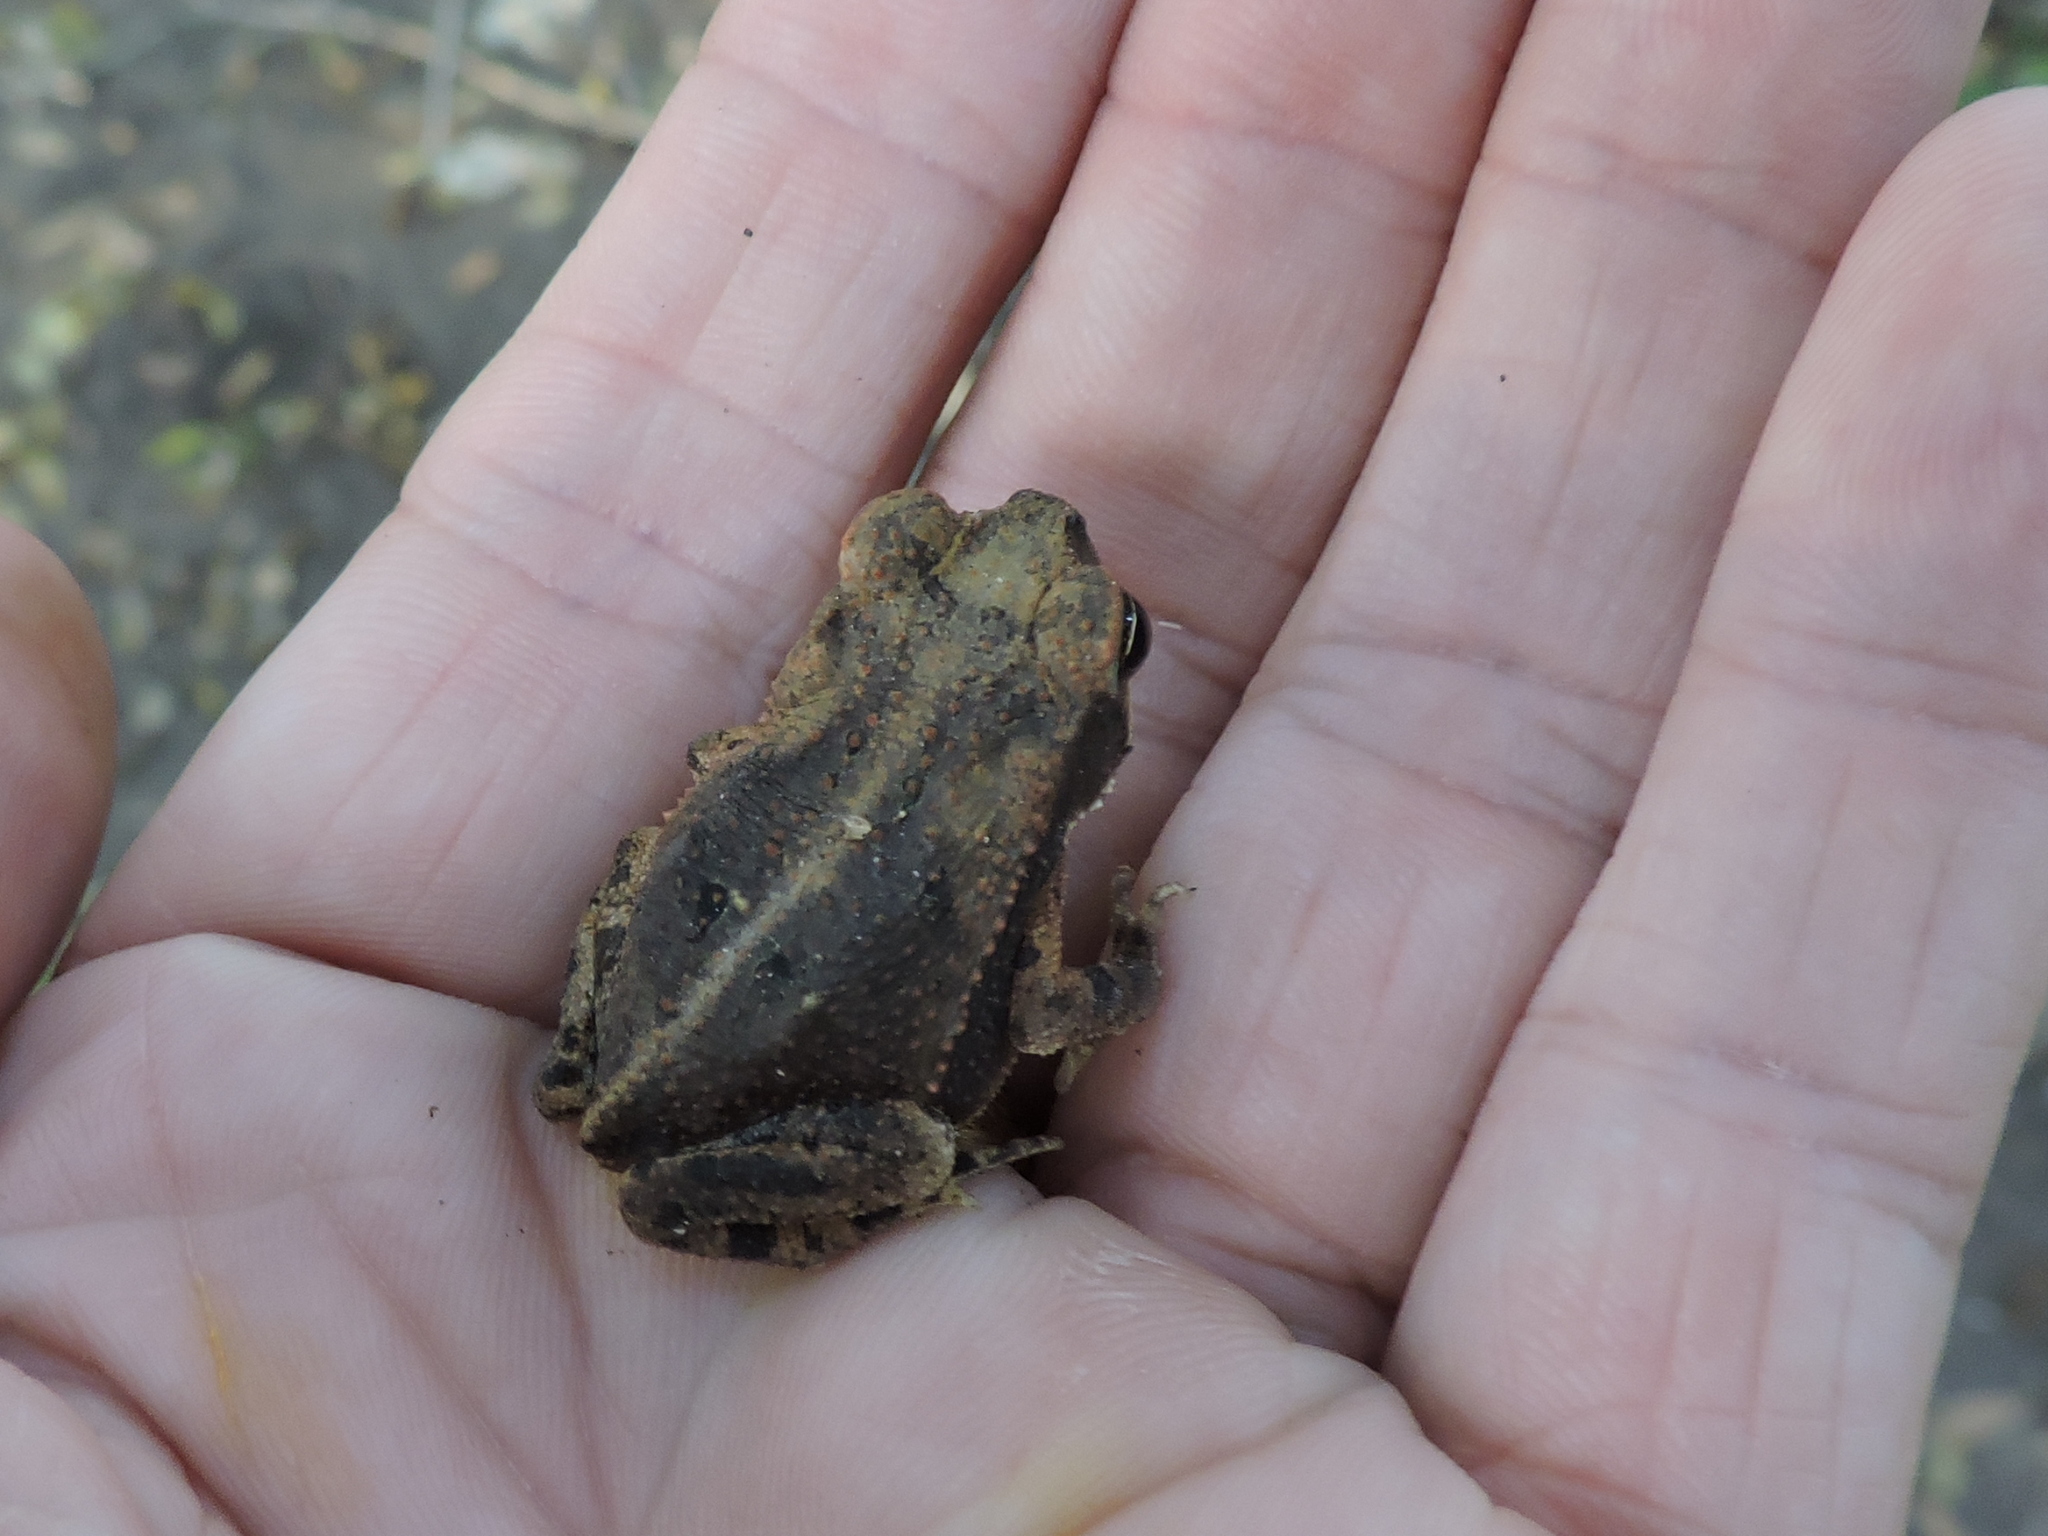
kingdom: Animalia
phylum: Chordata
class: Amphibia
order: Anura
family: Bufonidae
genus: Incilius
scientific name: Incilius nebulifer
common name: Gulf coast toad
